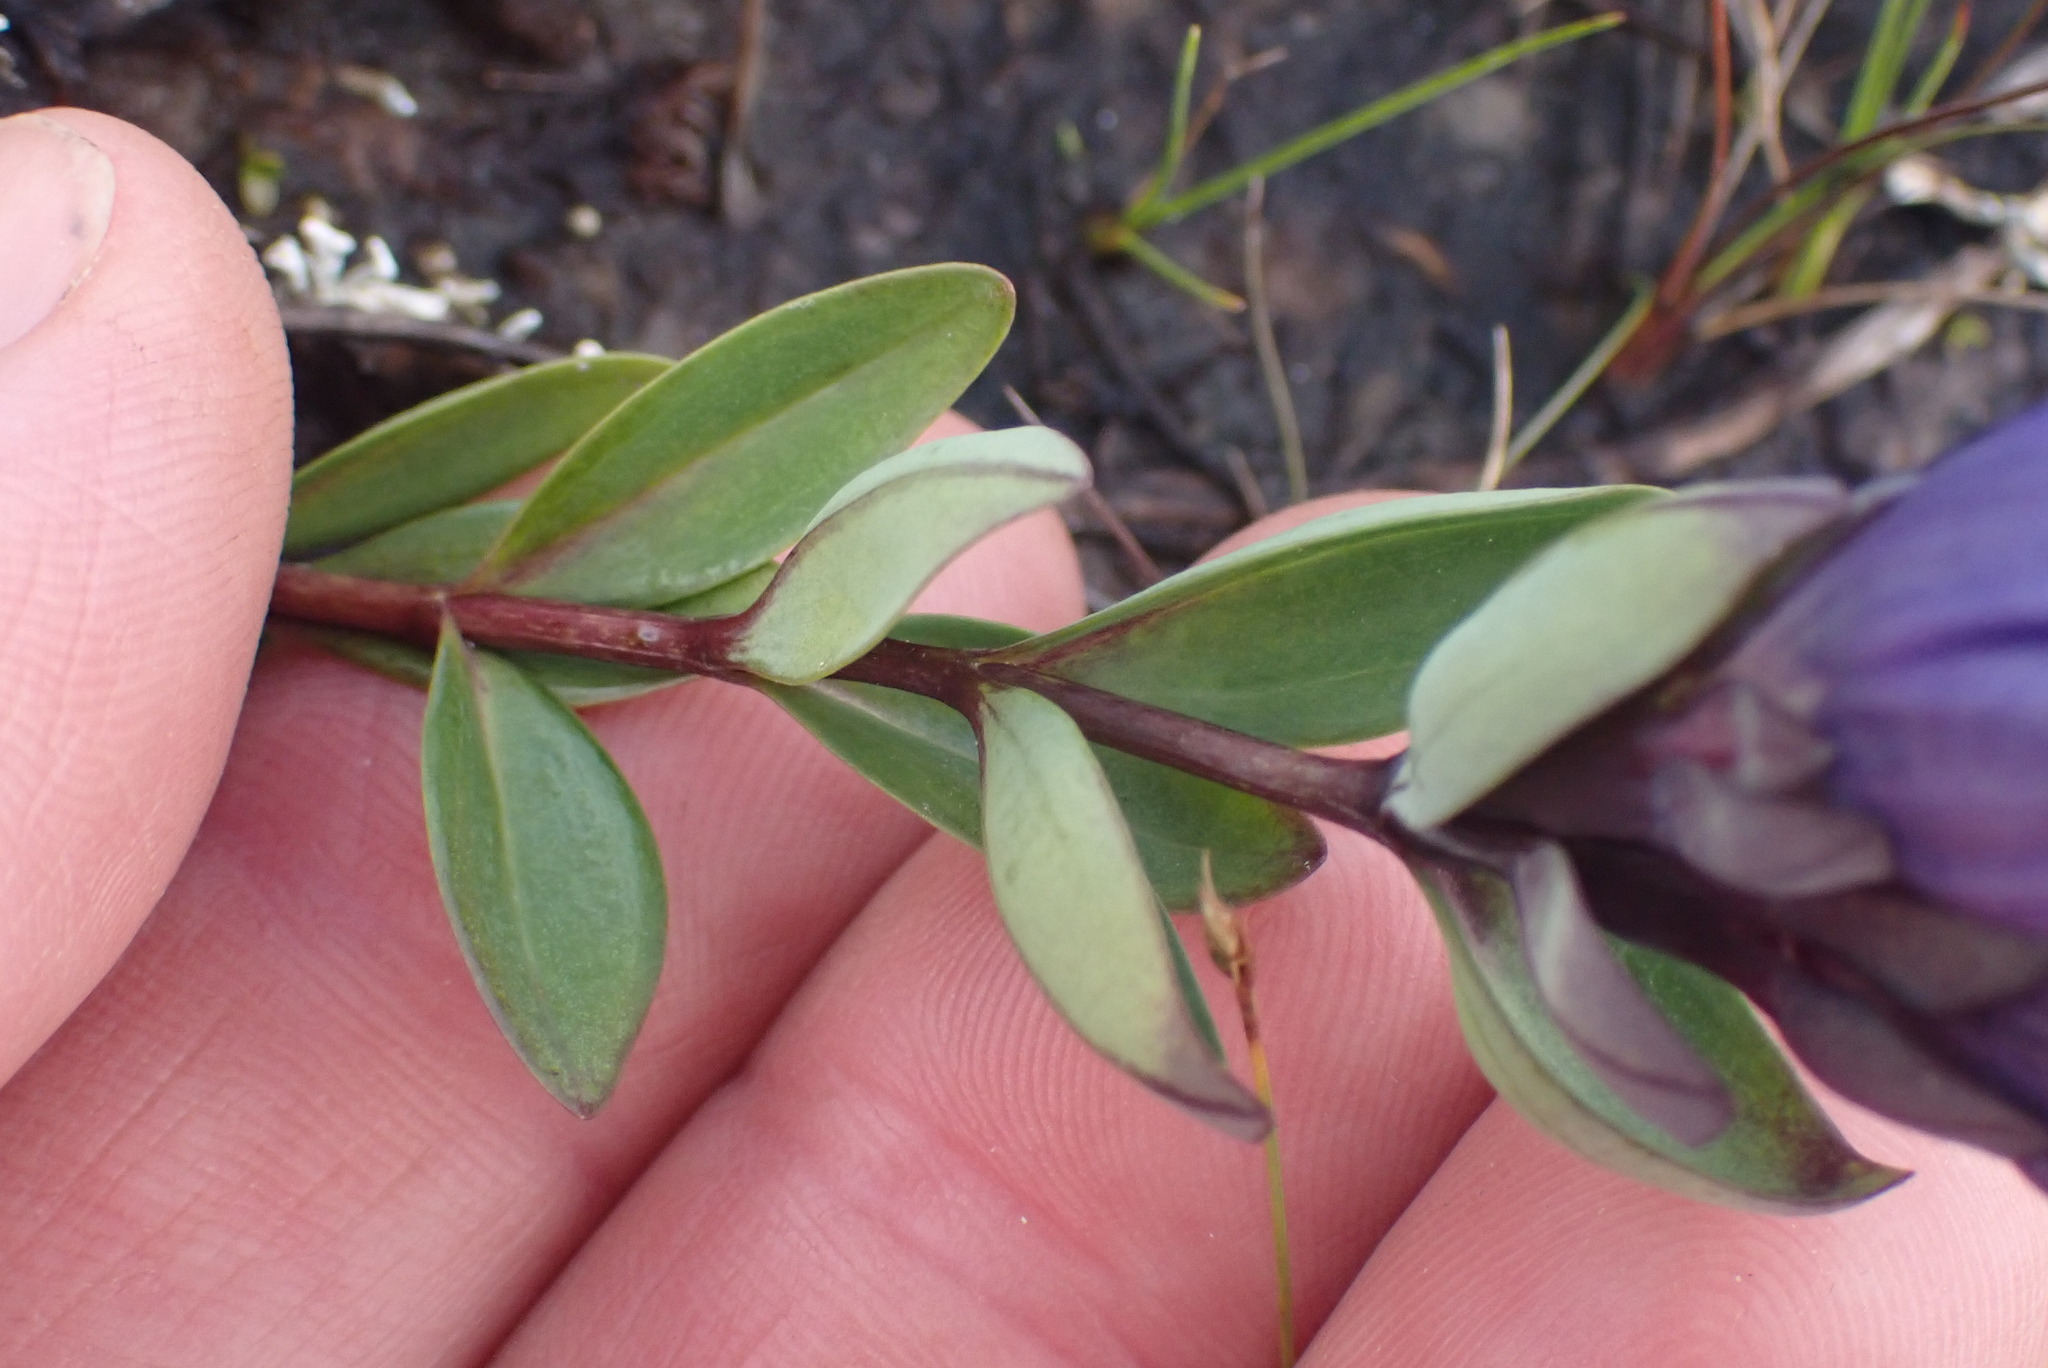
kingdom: Plantae
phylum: Tracheophyta
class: Magnoliopsida
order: Gentianales
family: Gentianaceae
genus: Gentiana
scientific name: Gentiana sceptrum
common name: Pacific gentian
